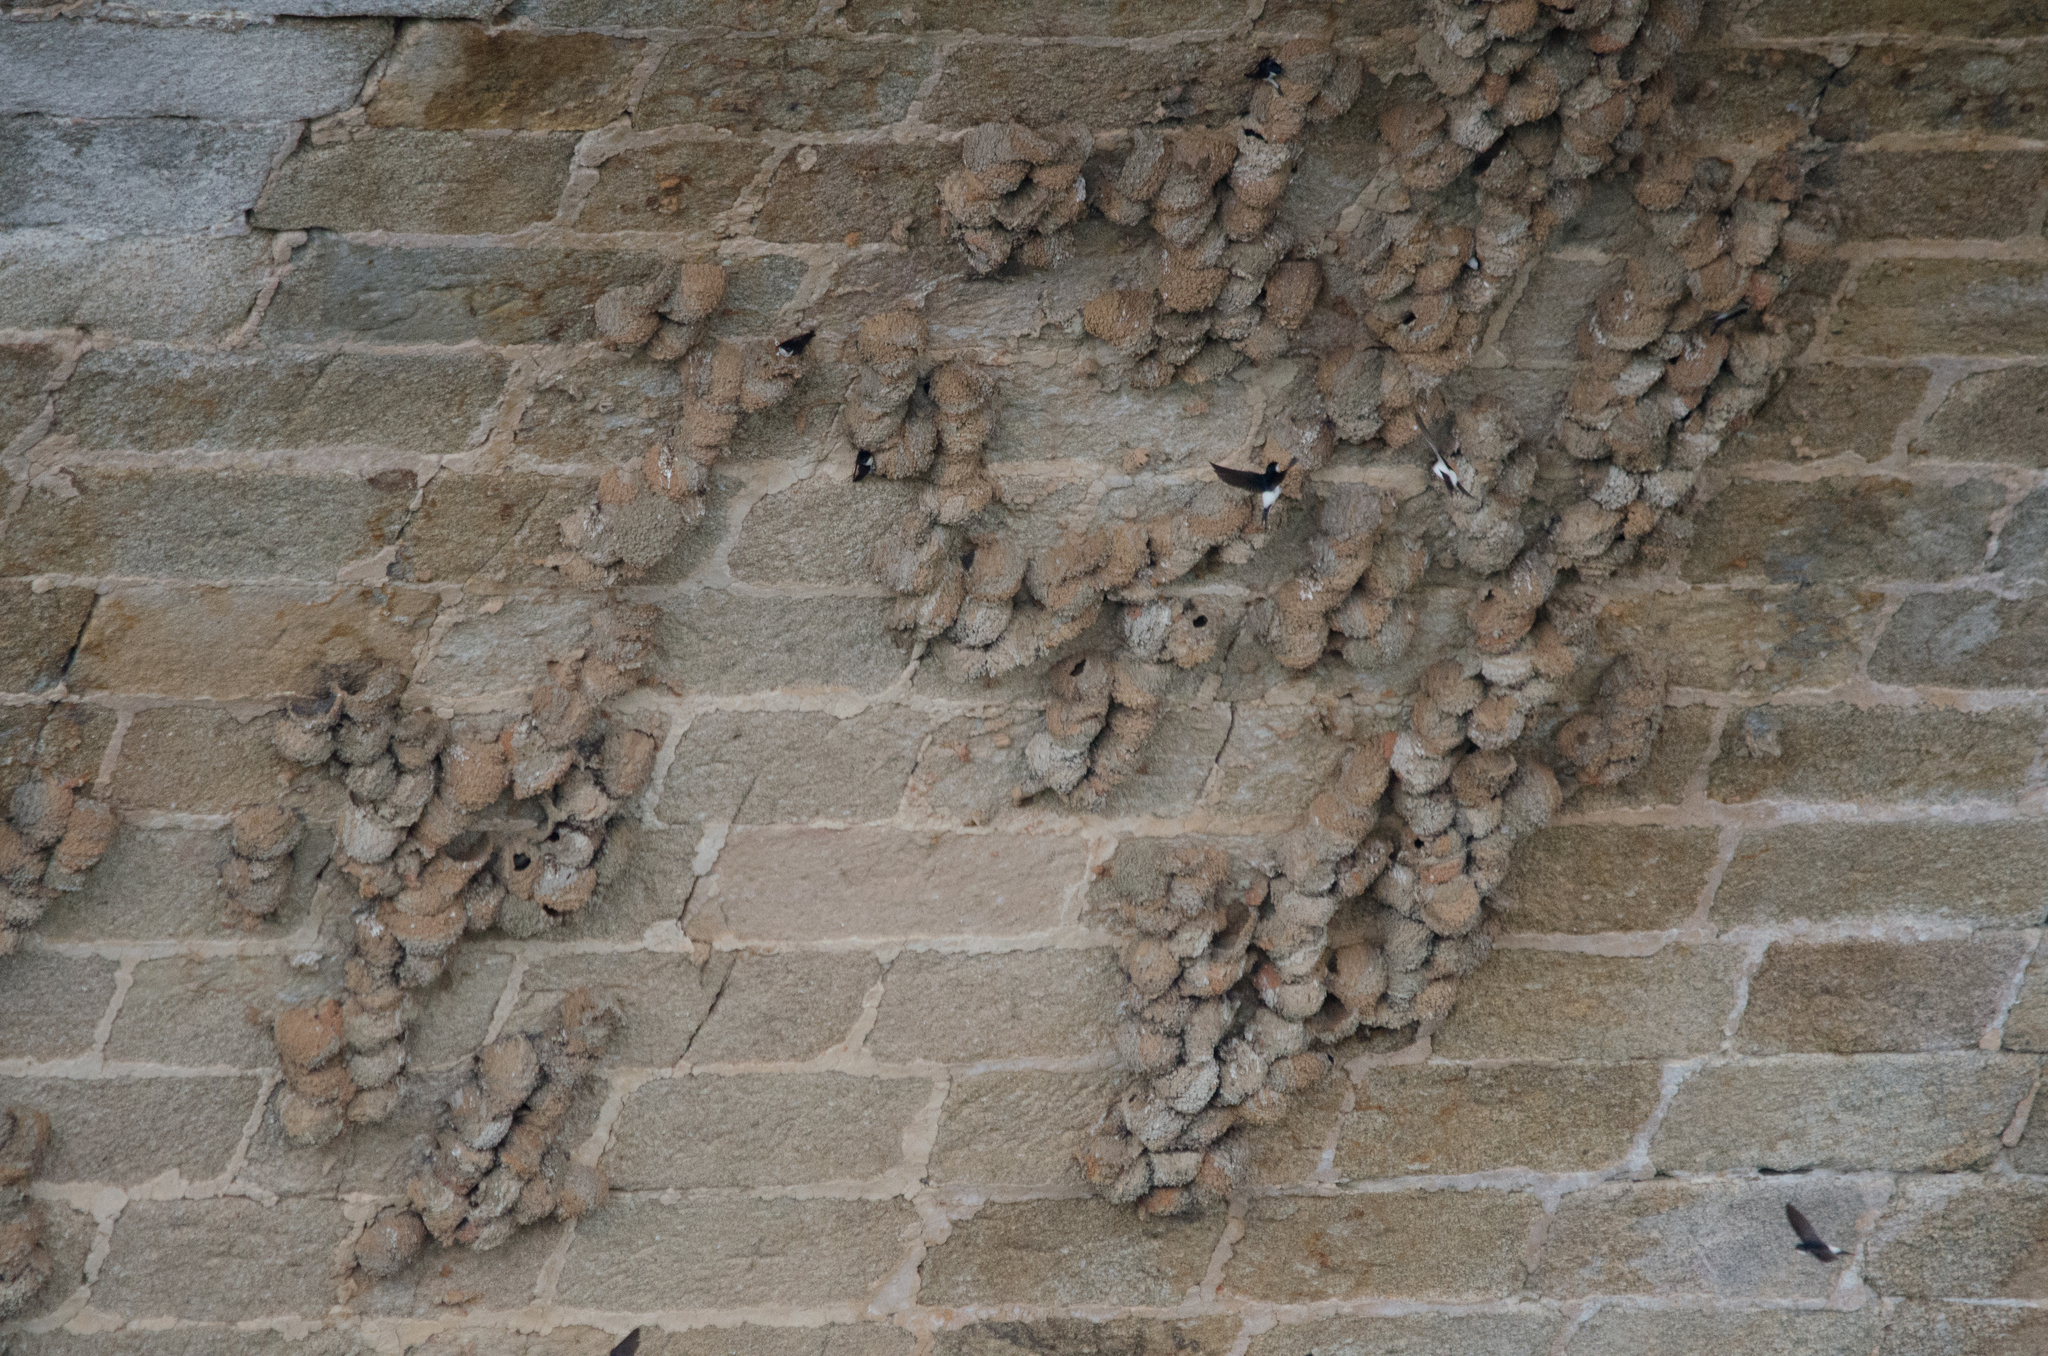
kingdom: Animalia
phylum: Chordata
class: Aves
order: Passeriformes
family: Hirundinidae
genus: Delichon
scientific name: Delichon urbicum
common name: Common house martin
